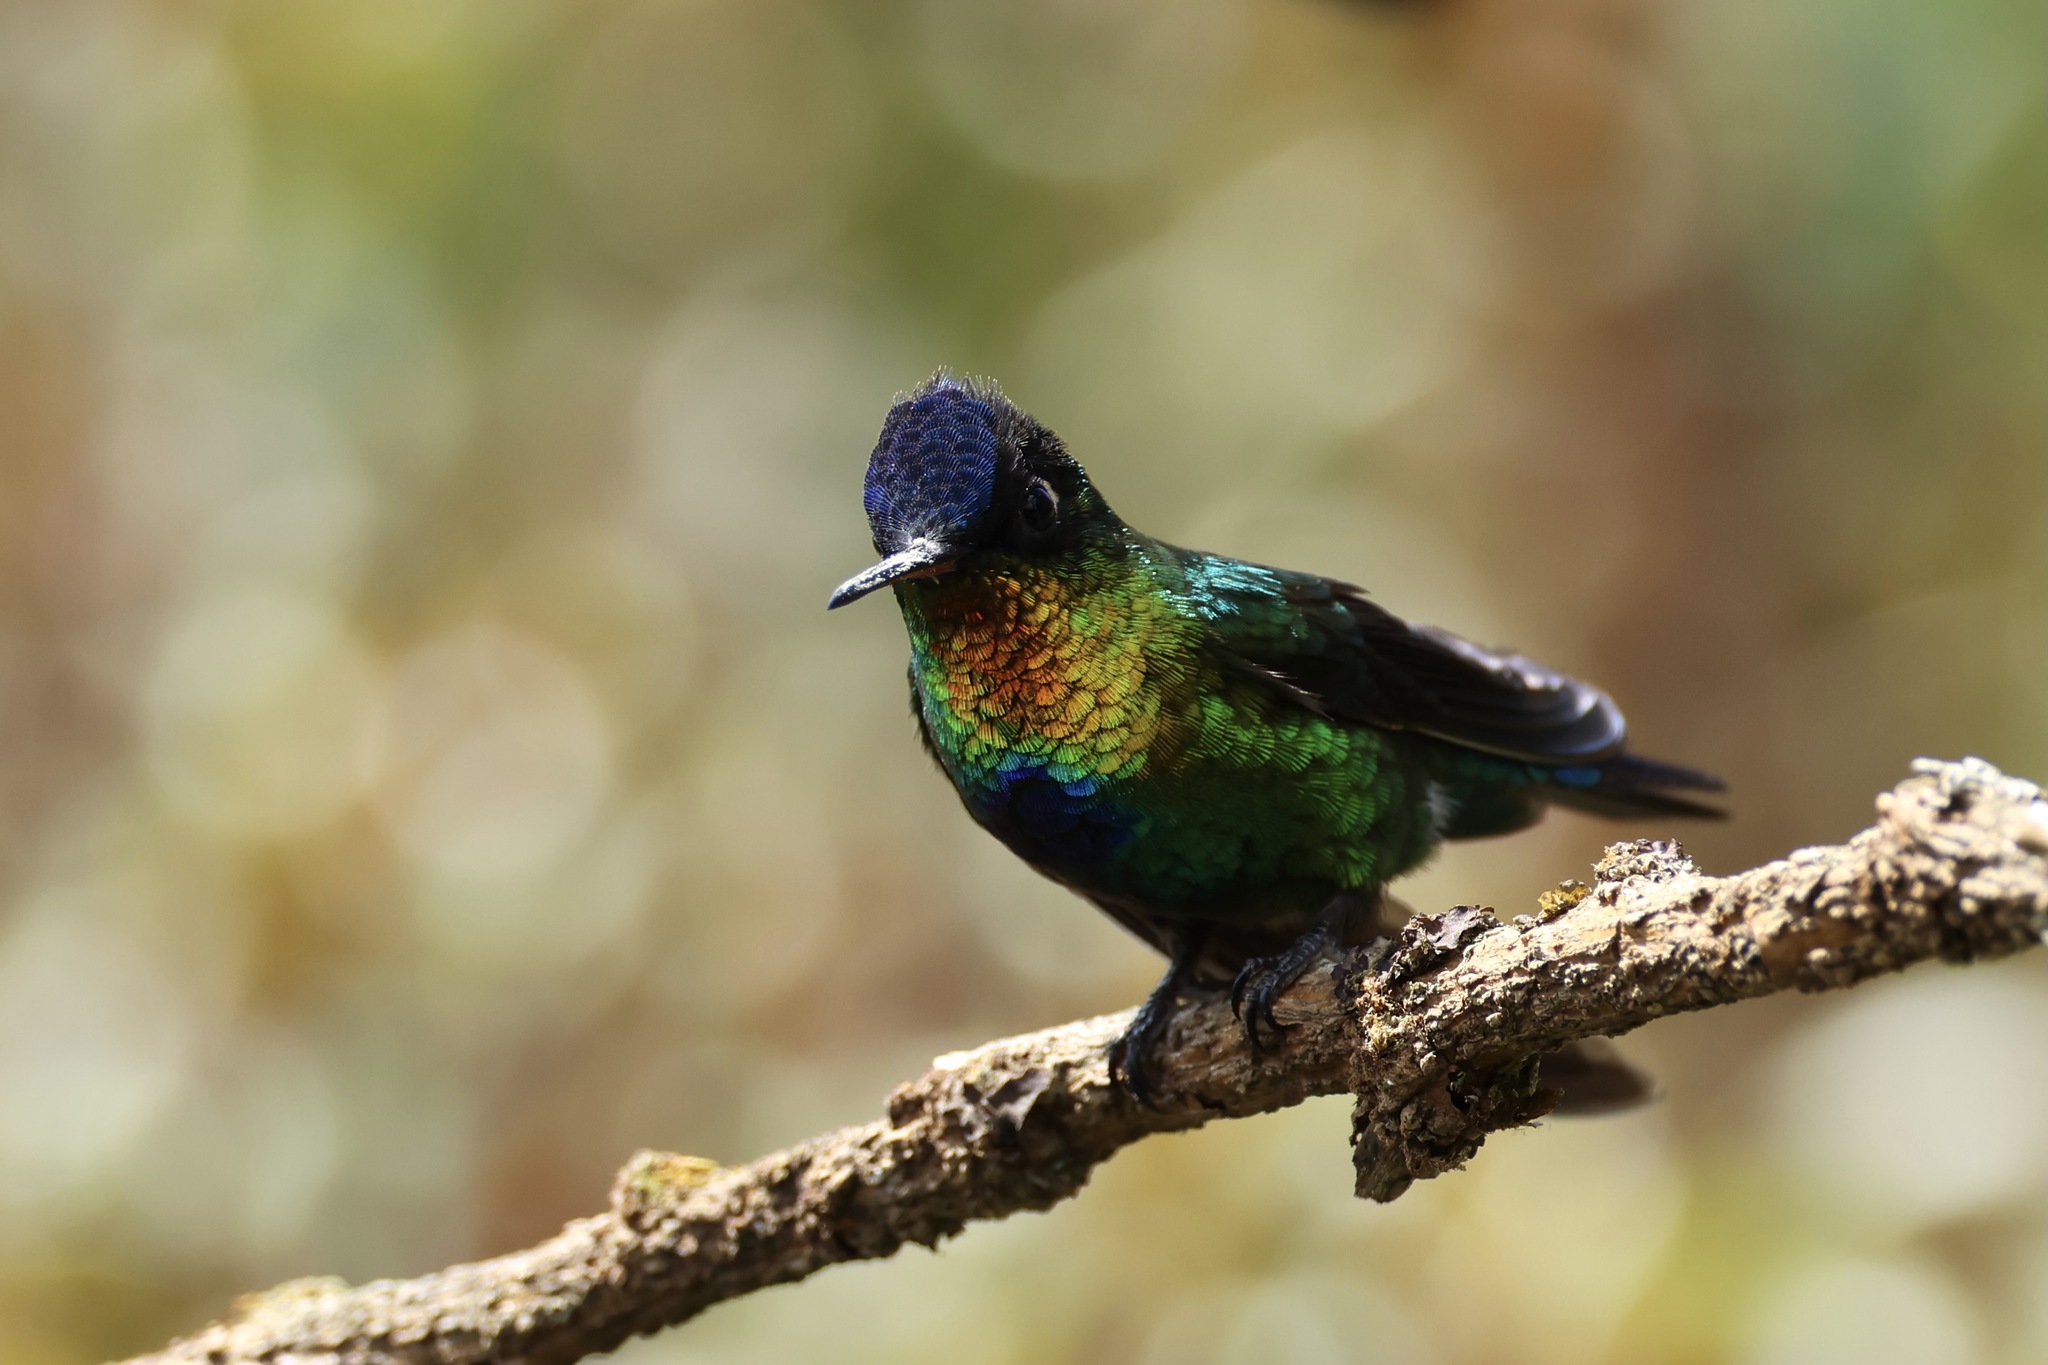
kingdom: Animalia
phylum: Chordata
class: Aves
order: Apodiformes
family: Trochilidae
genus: Panterpe
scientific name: Panterpe insignis
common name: Fiery-throated hummingbird
